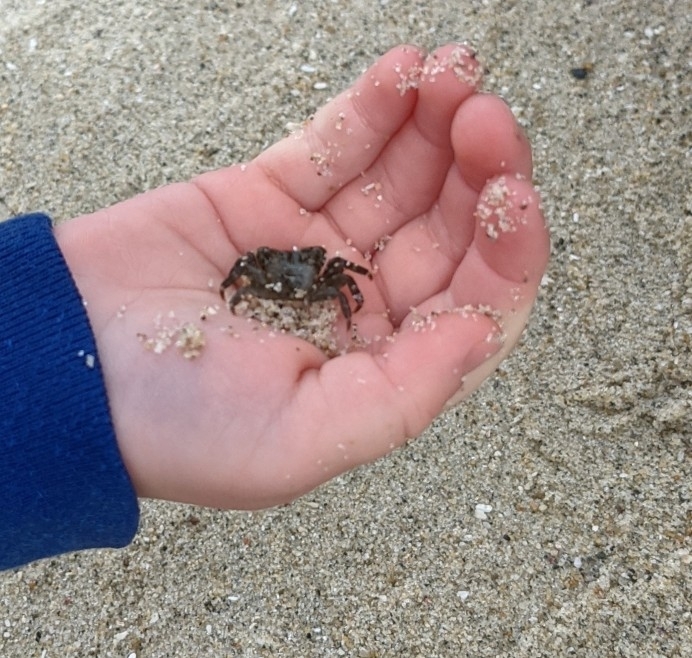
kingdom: Animalia
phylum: Arthropoda
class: Malacostraca
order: Decapoda
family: Grapsidae
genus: Pachygrapsus
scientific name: Pachygrapsus crassipes
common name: Striped shore crab
